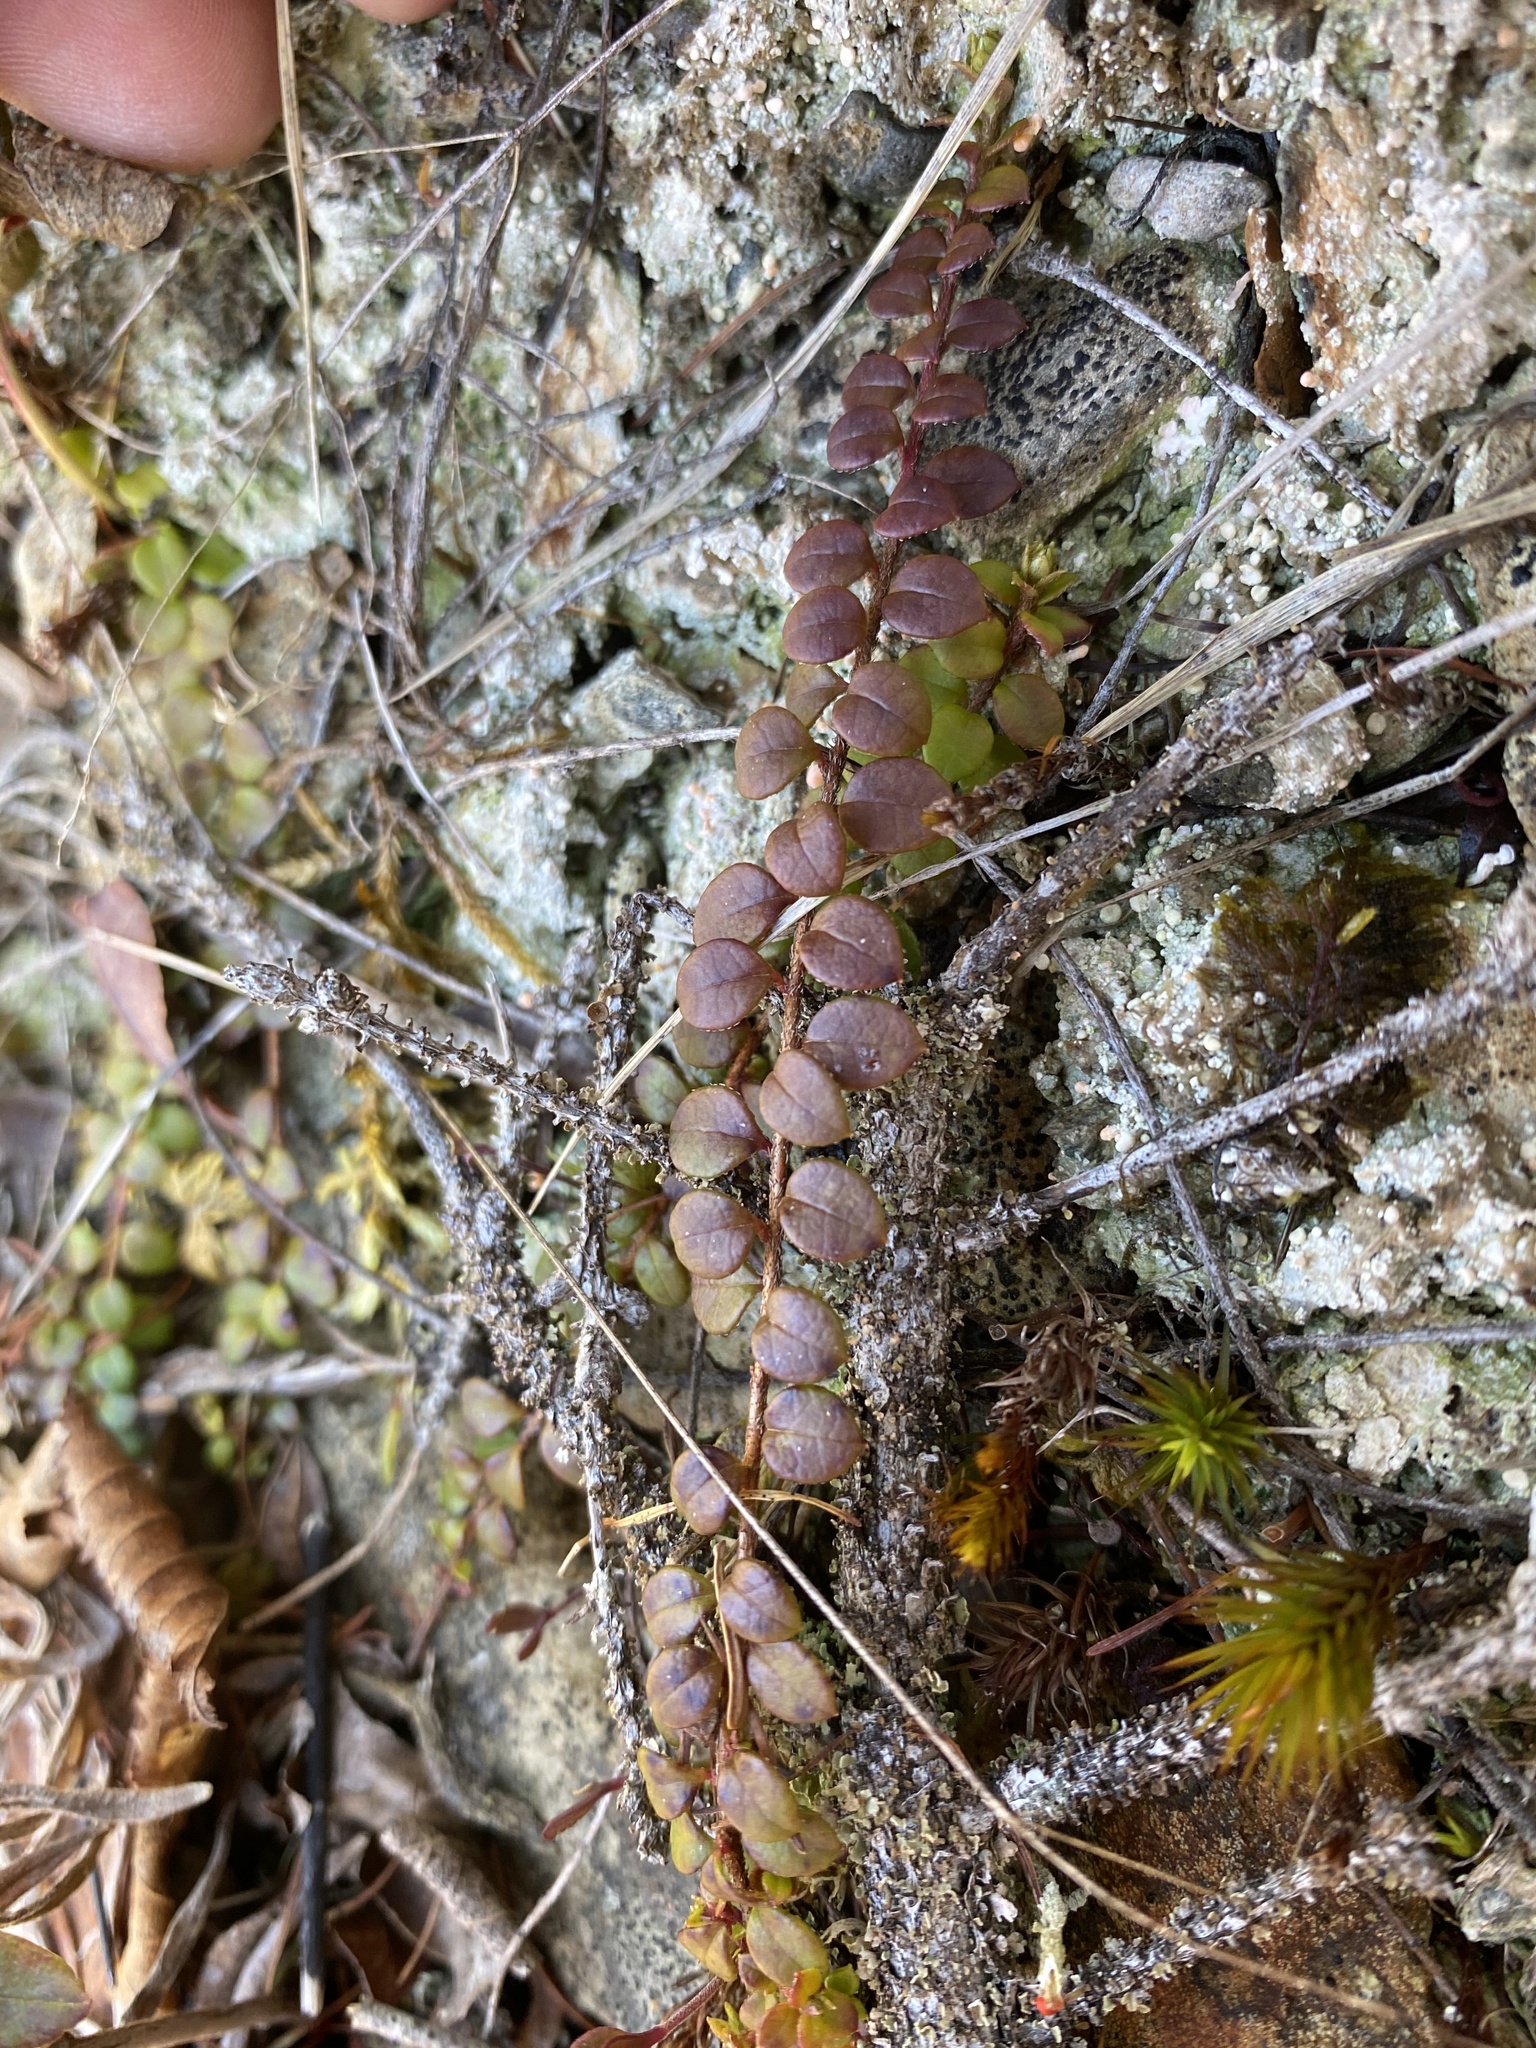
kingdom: Plantae
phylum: Tracheophyta
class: Magnoliopsida
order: Ericales
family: Ericaceae
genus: Gaultheria
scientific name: Gaultheria hispidula
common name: Cancer wintergreen
